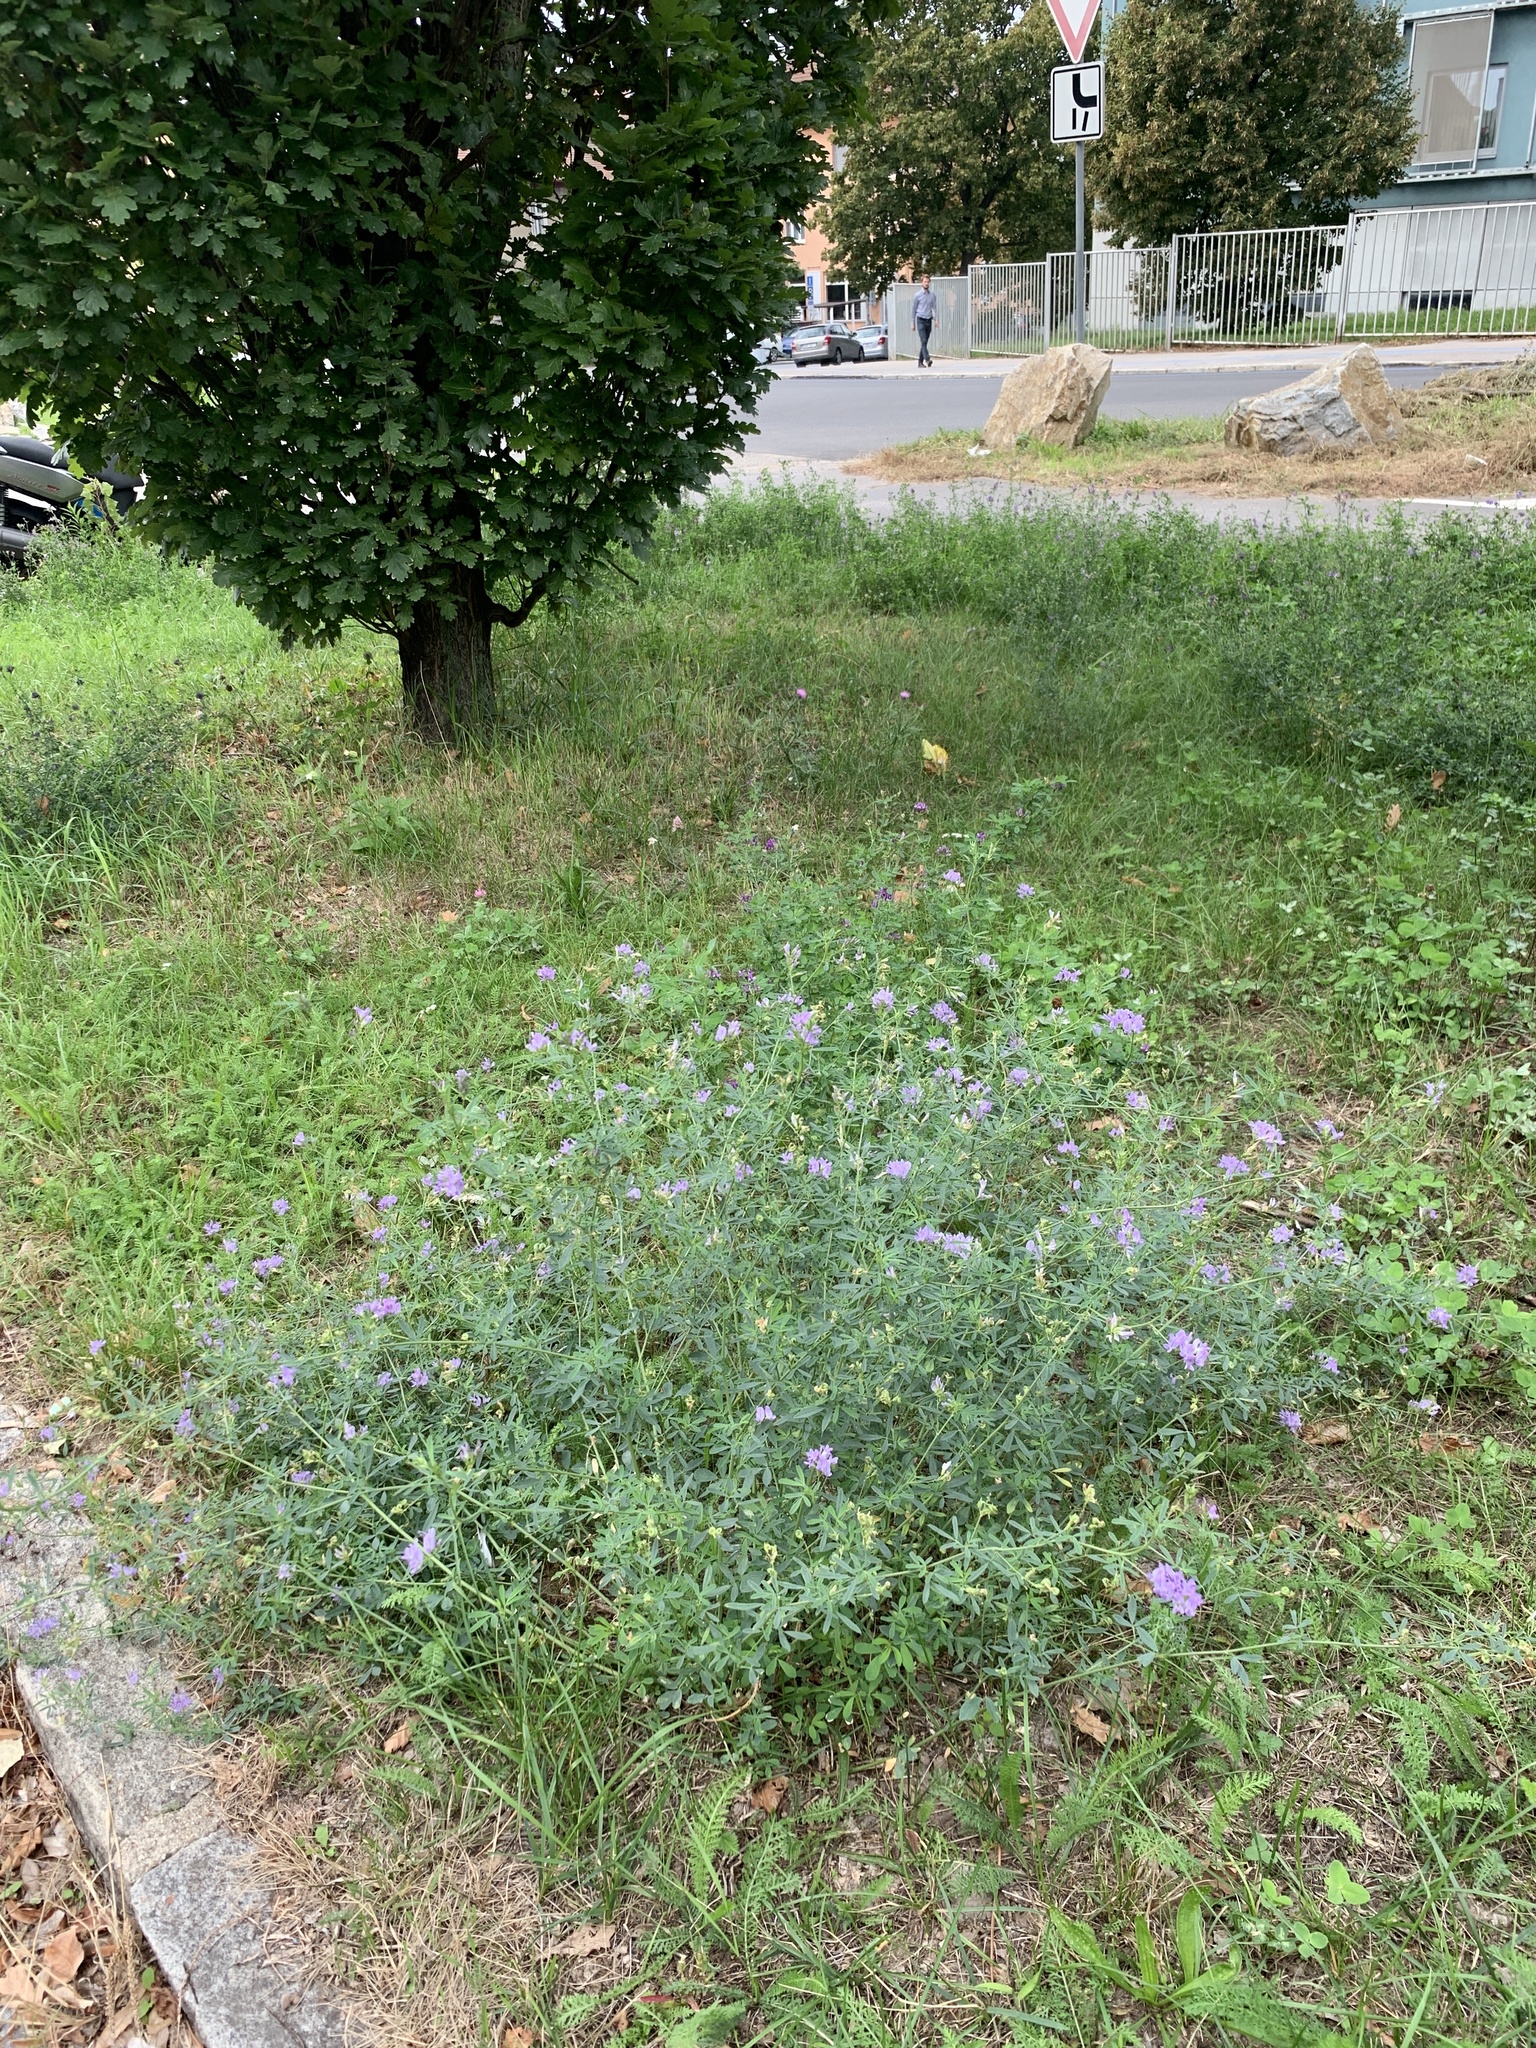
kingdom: Plantae
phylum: Tracheophyta
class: Magnoliopsida
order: Fabales
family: Fabaceae
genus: Medicago
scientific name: Medicago sativa
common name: Alfalfa
